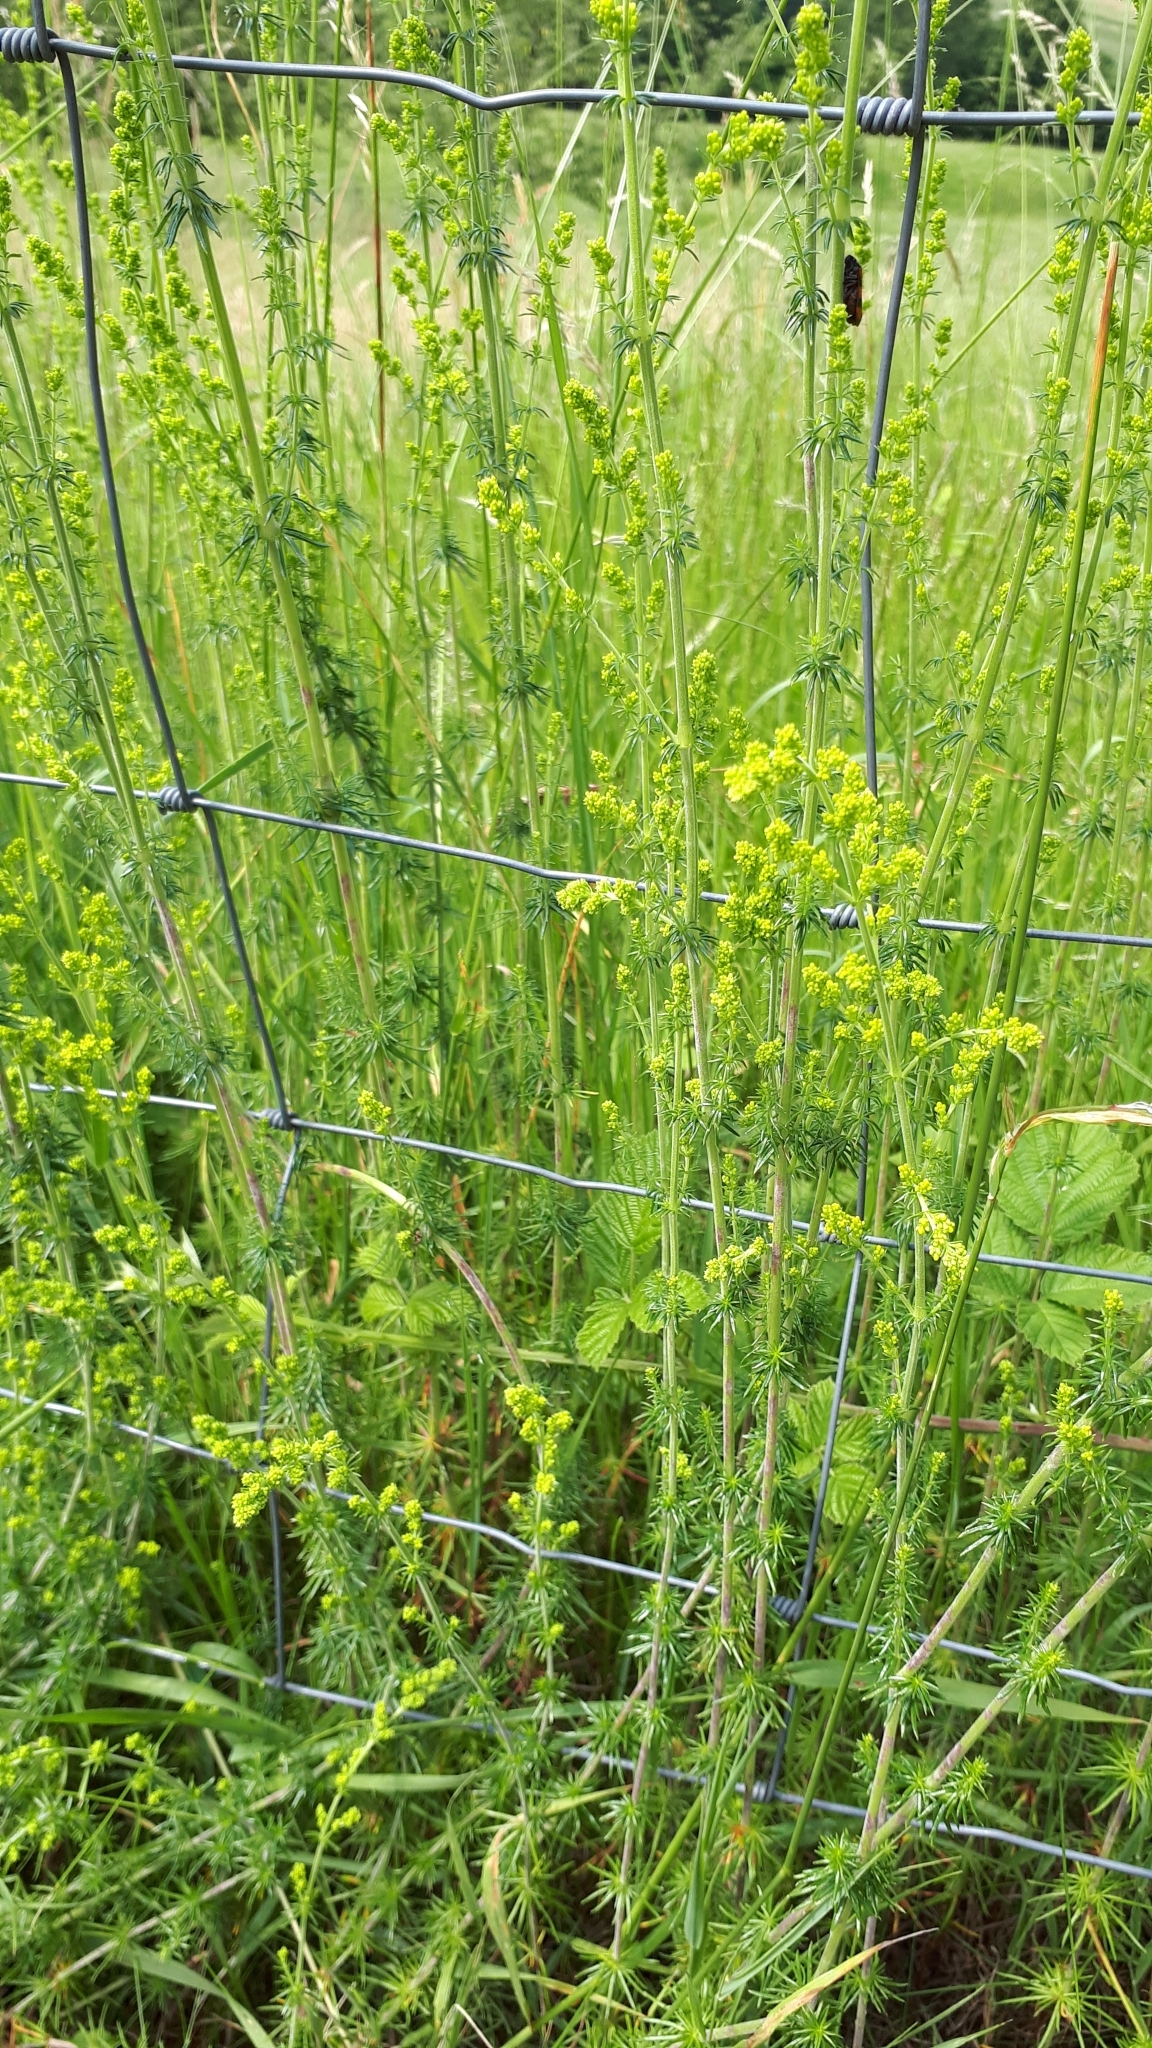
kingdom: Plantae
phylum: Tracheophyta
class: Magnoliopsida
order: Gentianales
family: Rubiaceae
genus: Galium
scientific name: Galium verum
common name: Lady's bedstraw
